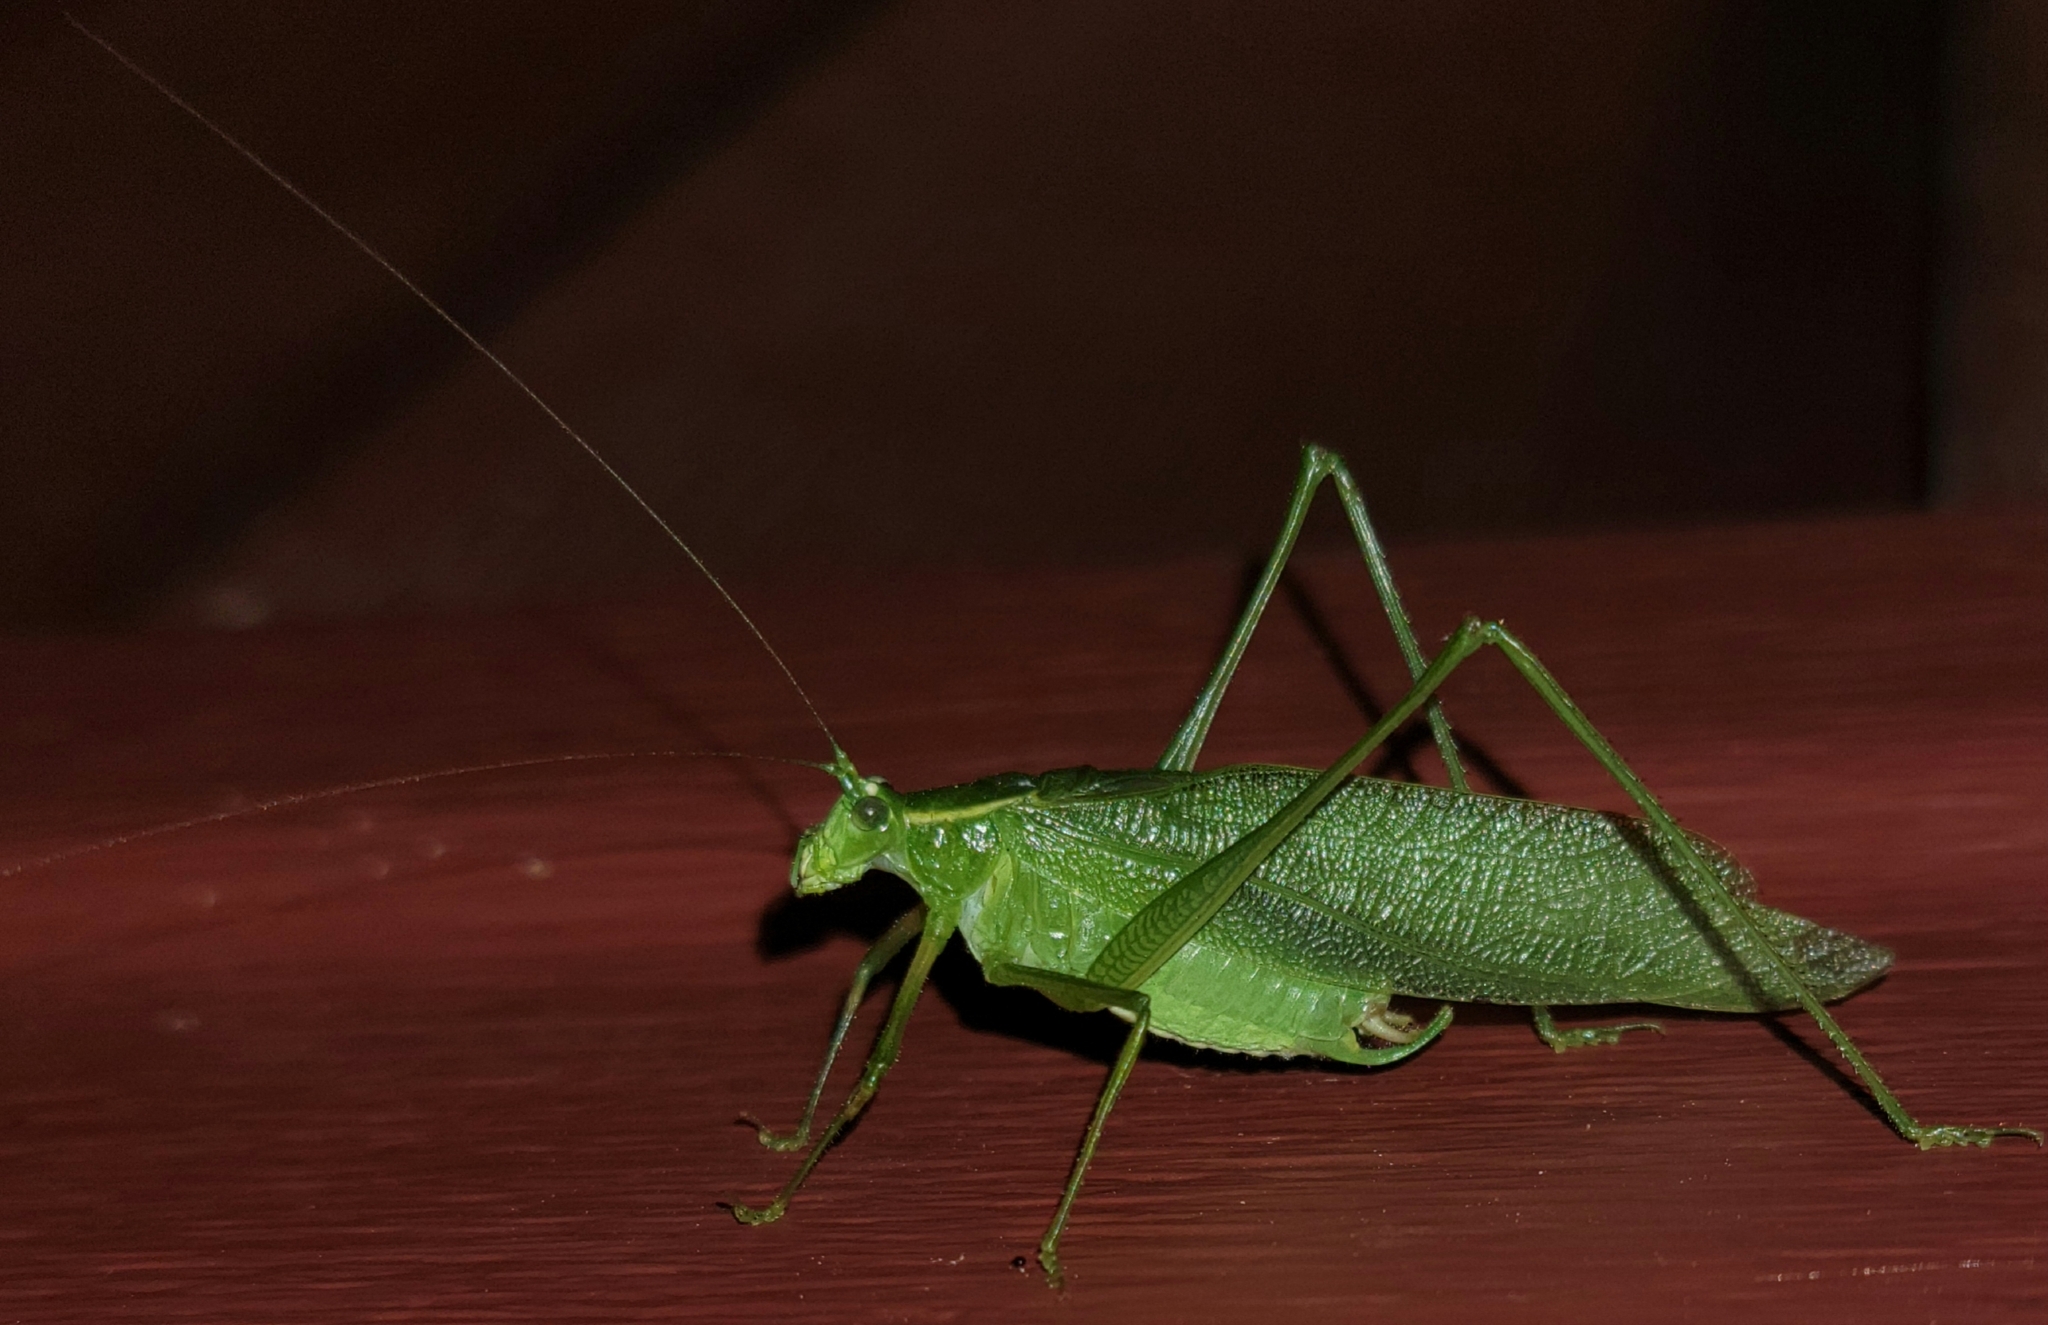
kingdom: Animalia
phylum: Arthropoda
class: Insecta
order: Orthoptera
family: Tettigoniidae
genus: Scudderia
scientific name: Scudderia septentrionalis
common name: Northern bush-katydid
